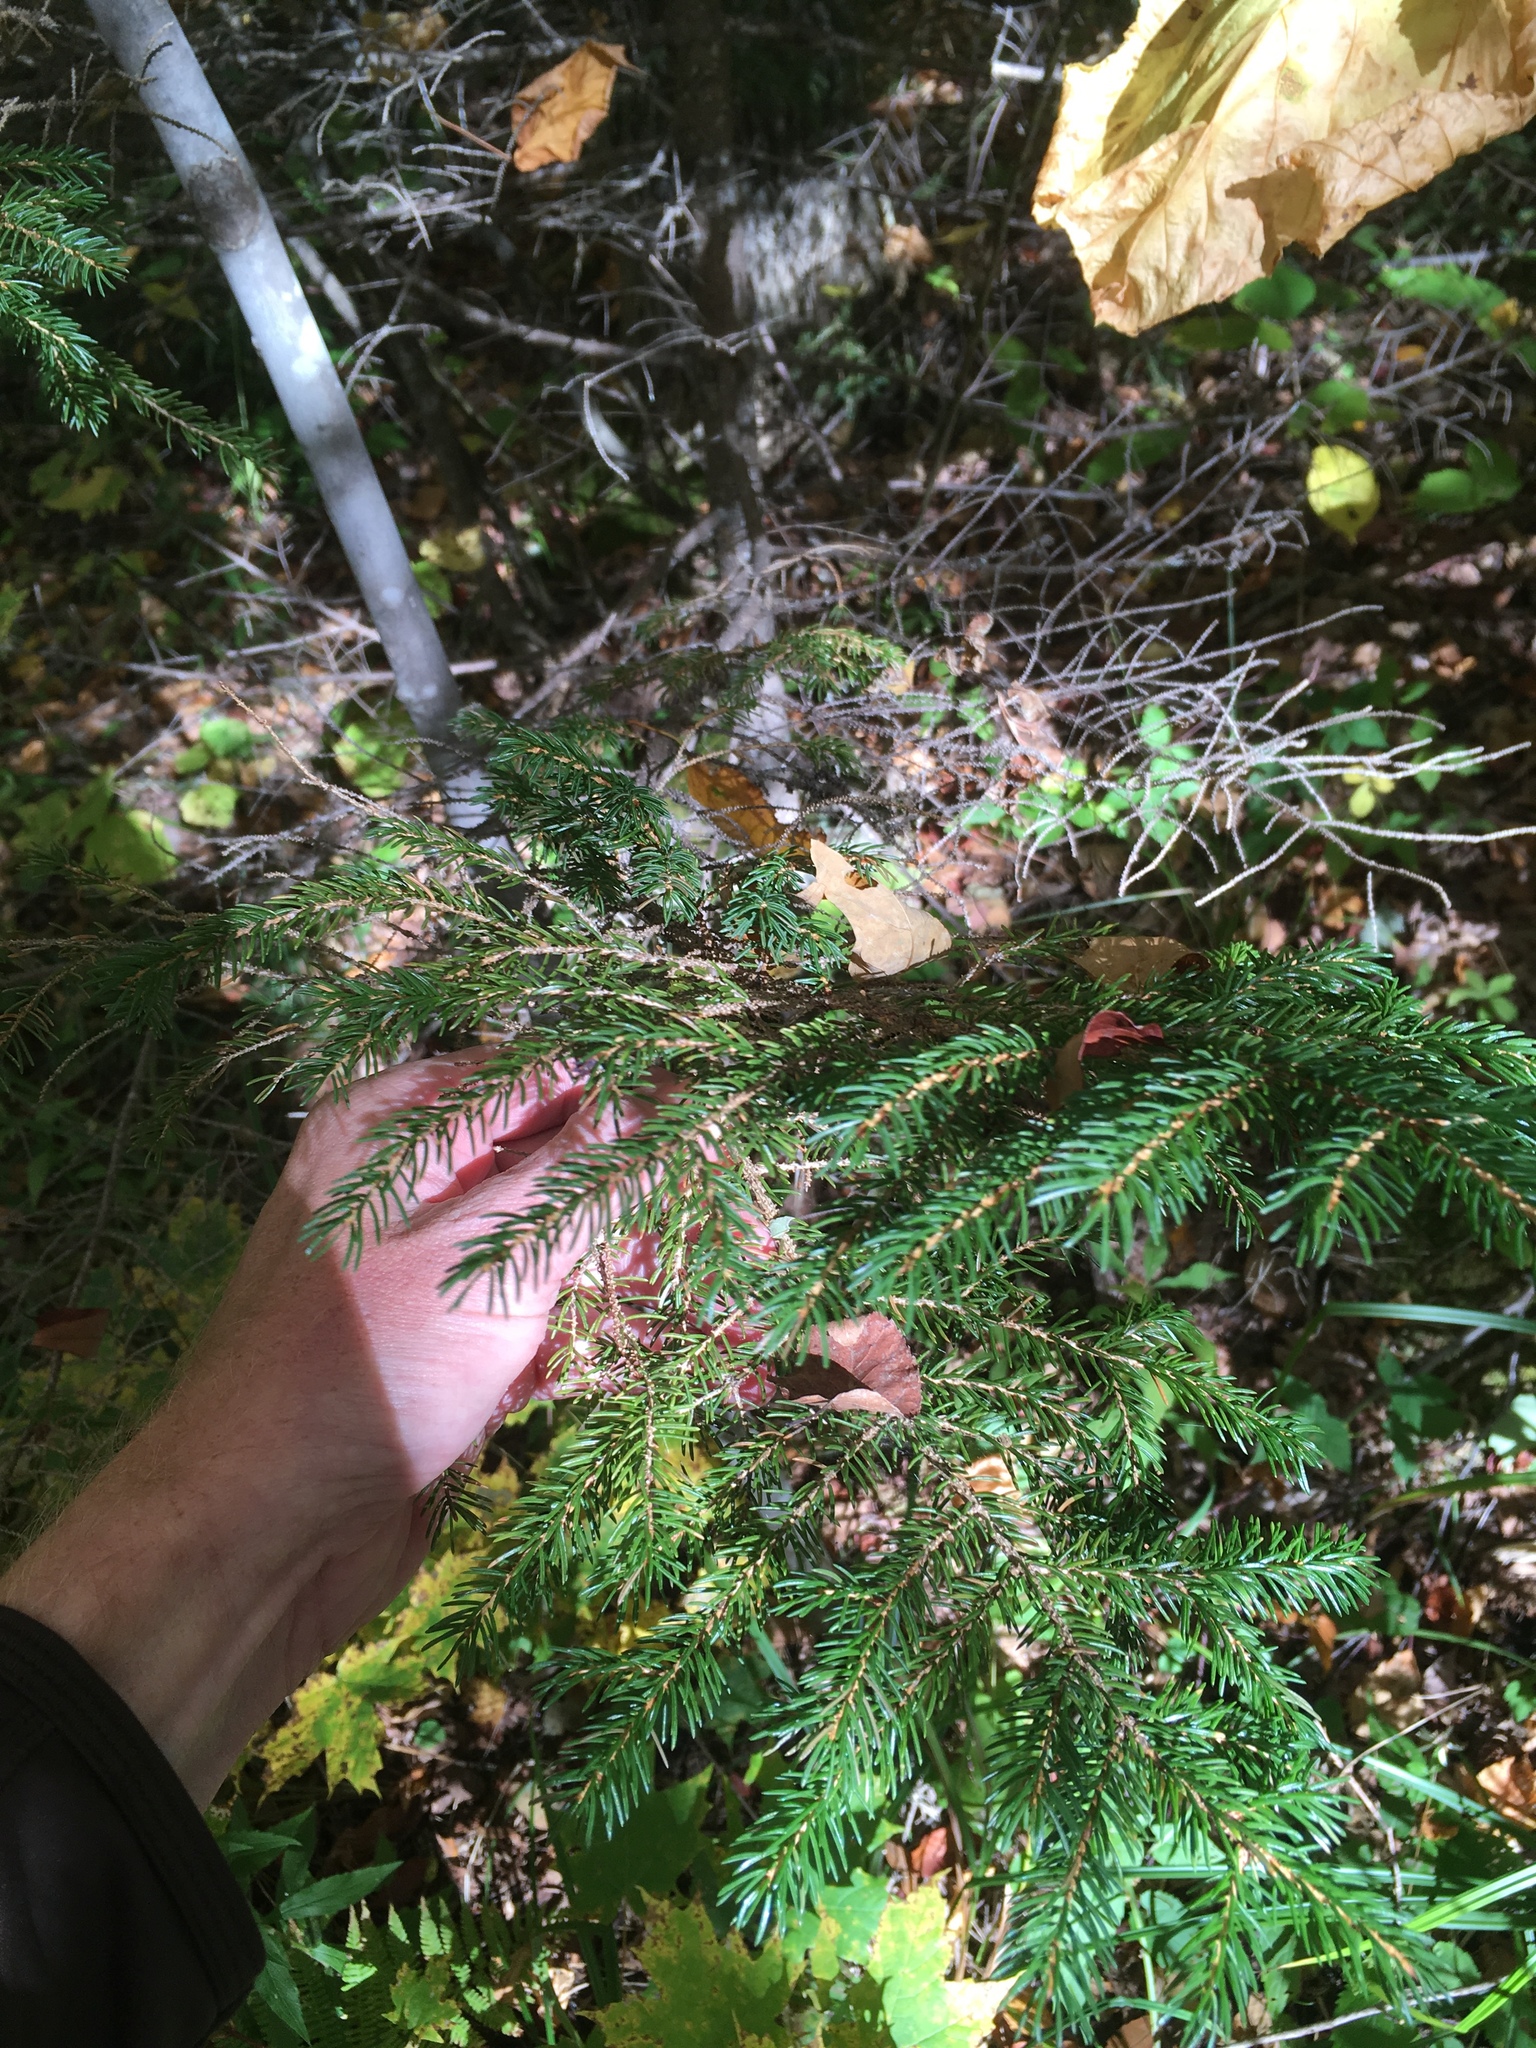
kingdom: Plantae
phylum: Tracheophyta
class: Pinopsida
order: Pinales
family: Pinaceae
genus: Picea
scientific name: Picea rubens
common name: Red spruce
